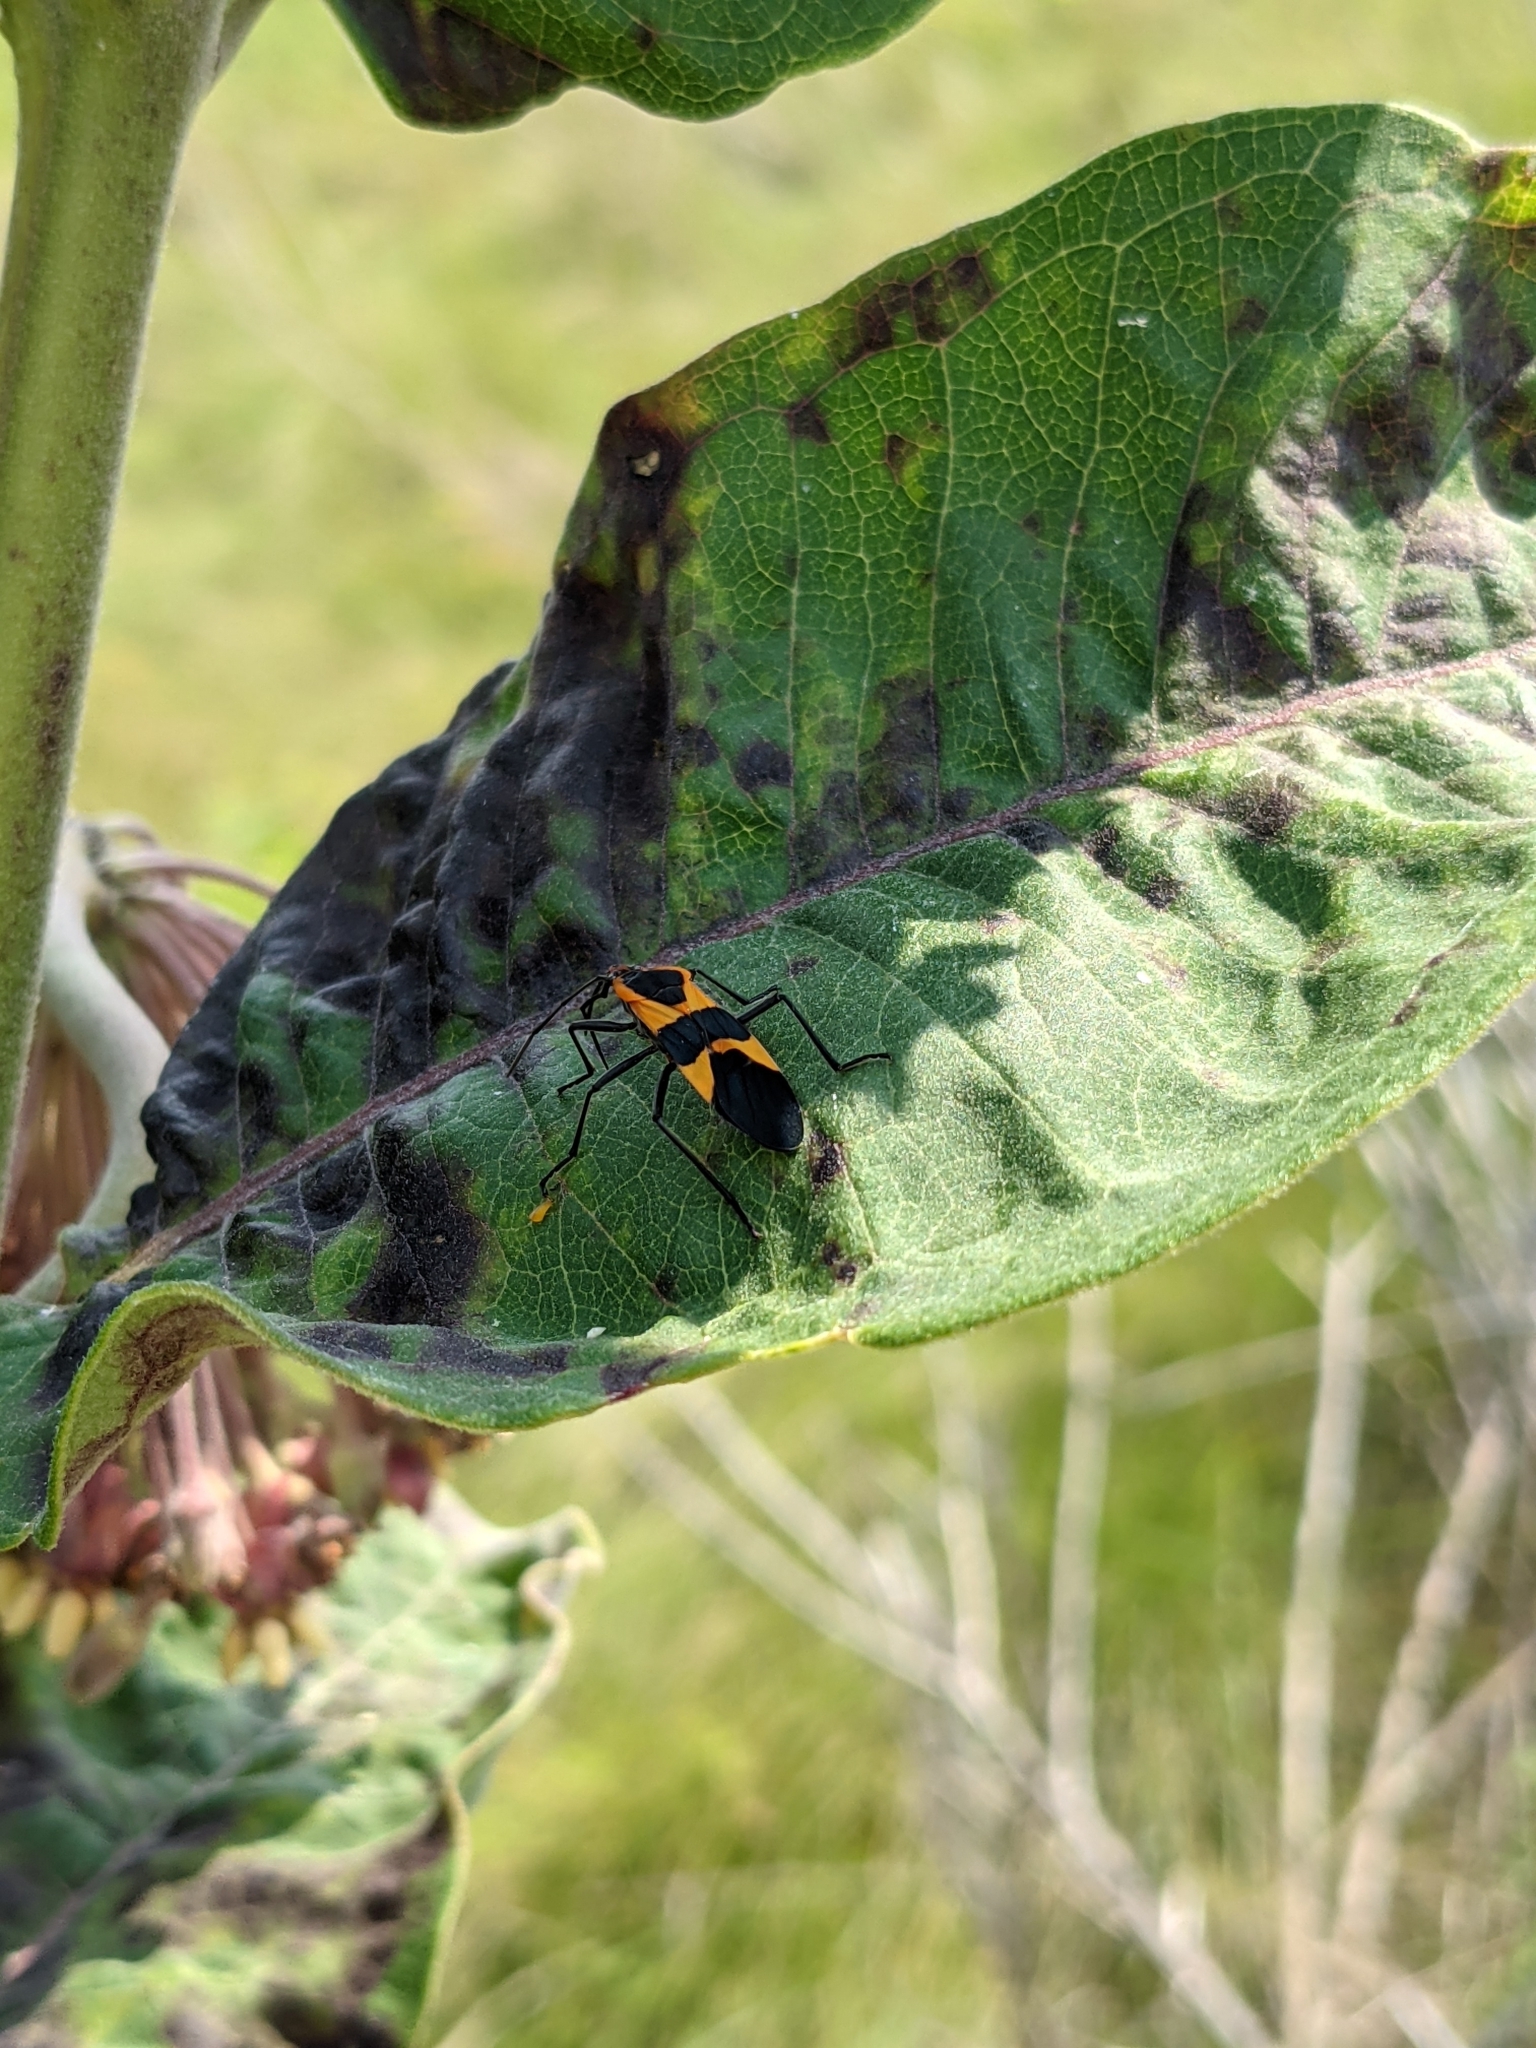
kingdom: Animalia
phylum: Arthropoda
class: Insecta
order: Hemiptera
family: Lygaeidae
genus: Oncopeltus
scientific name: Oncopeltus fasciatus
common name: Large milkweed bug
